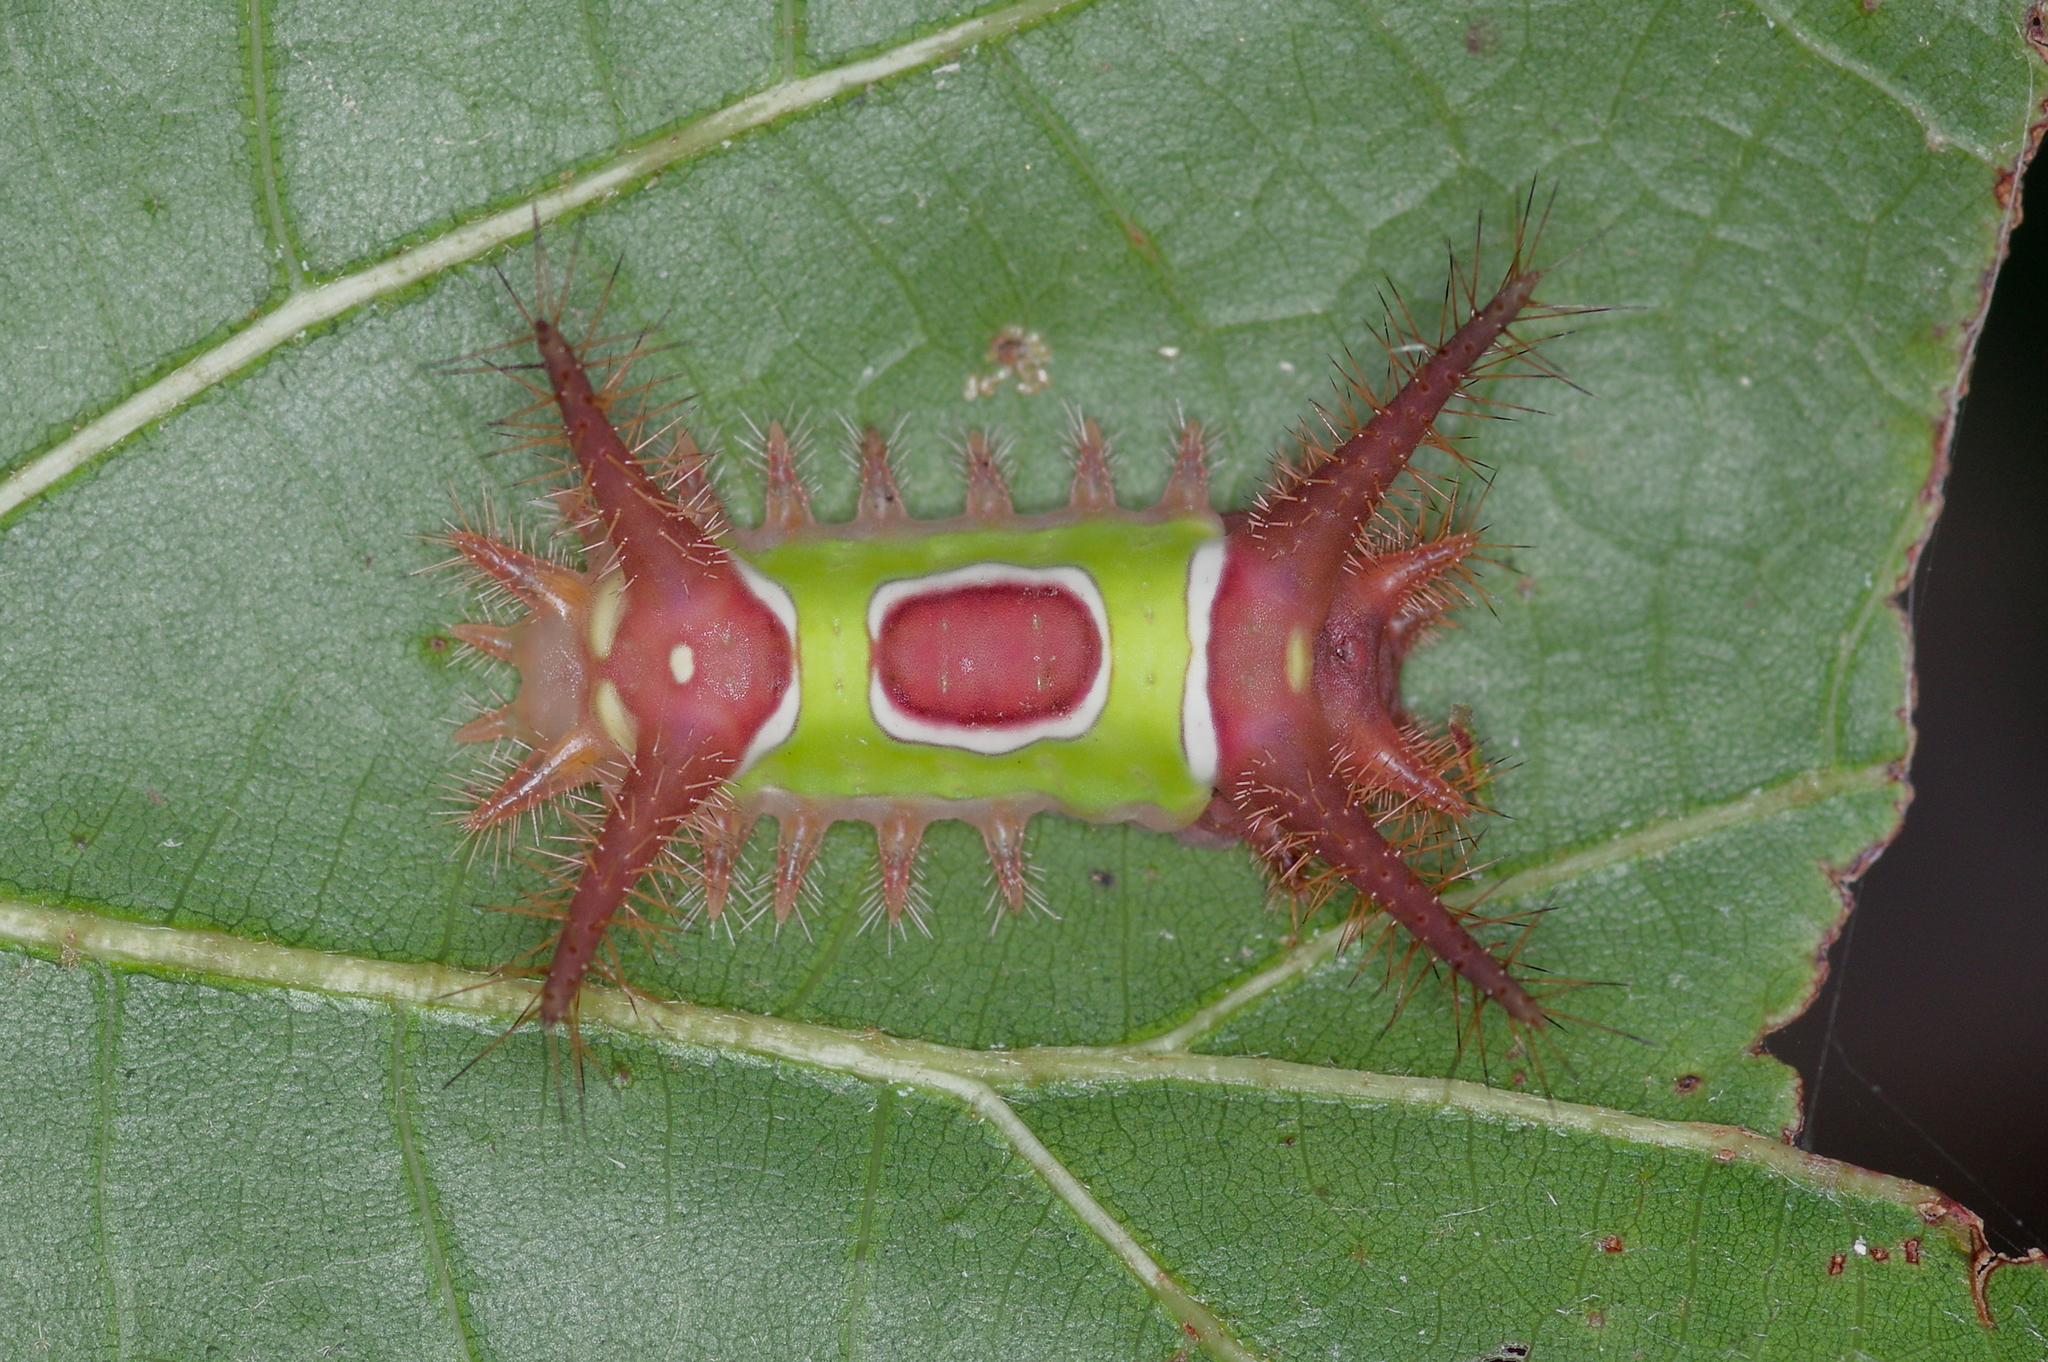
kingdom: Animalia
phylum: Arthropoda
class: Insecta
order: Lepidoptera
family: Limacodidae
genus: Acharia
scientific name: Acharia stimulea
